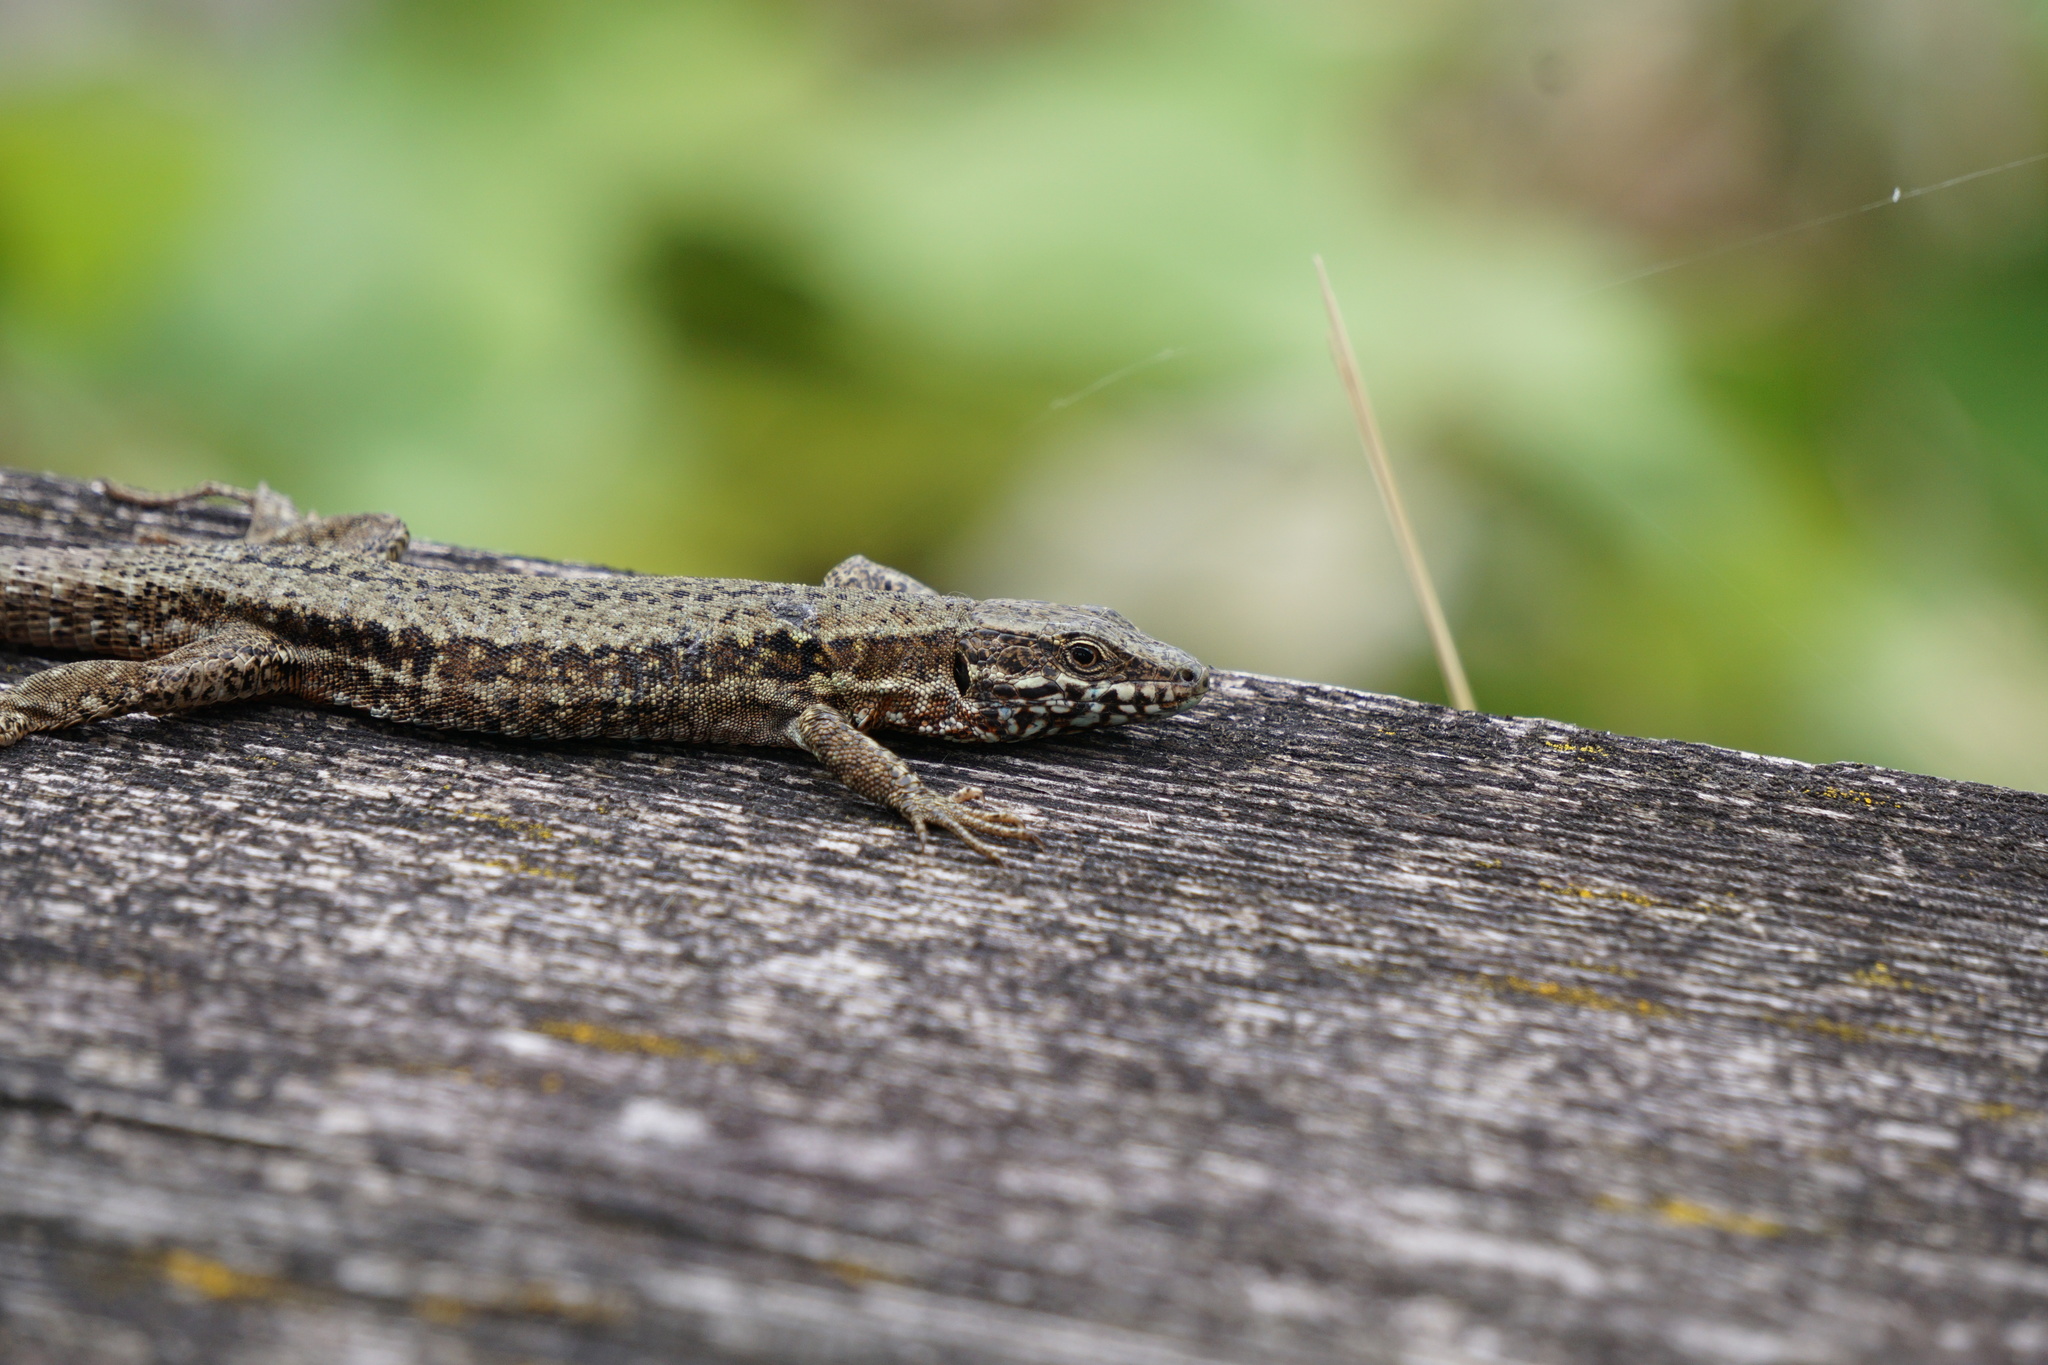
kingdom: Animalia
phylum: Chordata
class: Squamata
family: Lacertidae
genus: Podarcis
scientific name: Podarcis muralis
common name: Common wall lizard
